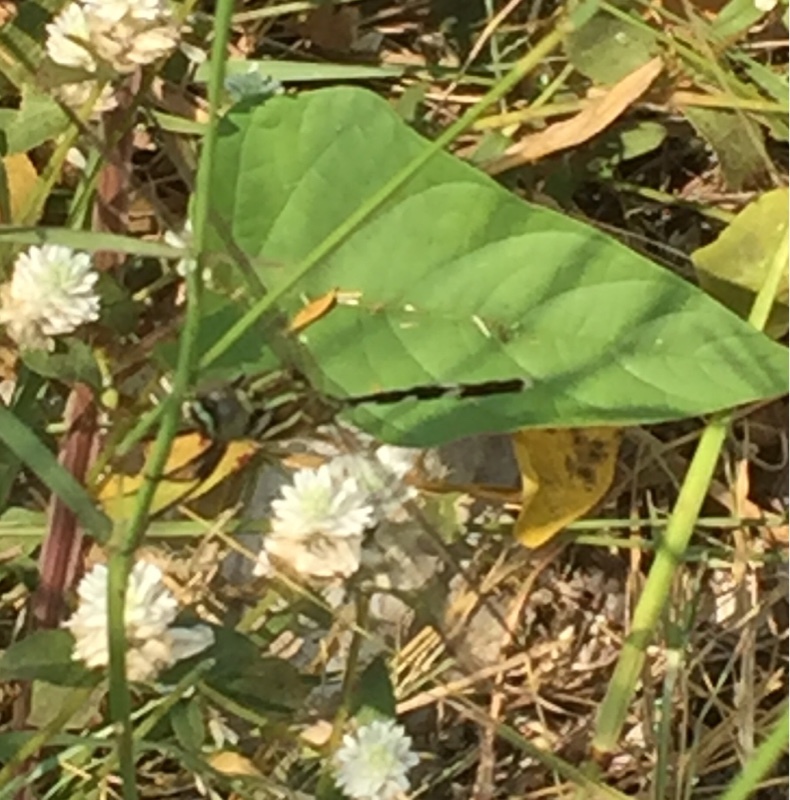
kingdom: Animalia
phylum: Arthropoda
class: Insecta
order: Odonata
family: Libellulidae
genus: Orthetrum
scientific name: Orthetrum sabina
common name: Slender skimmer
